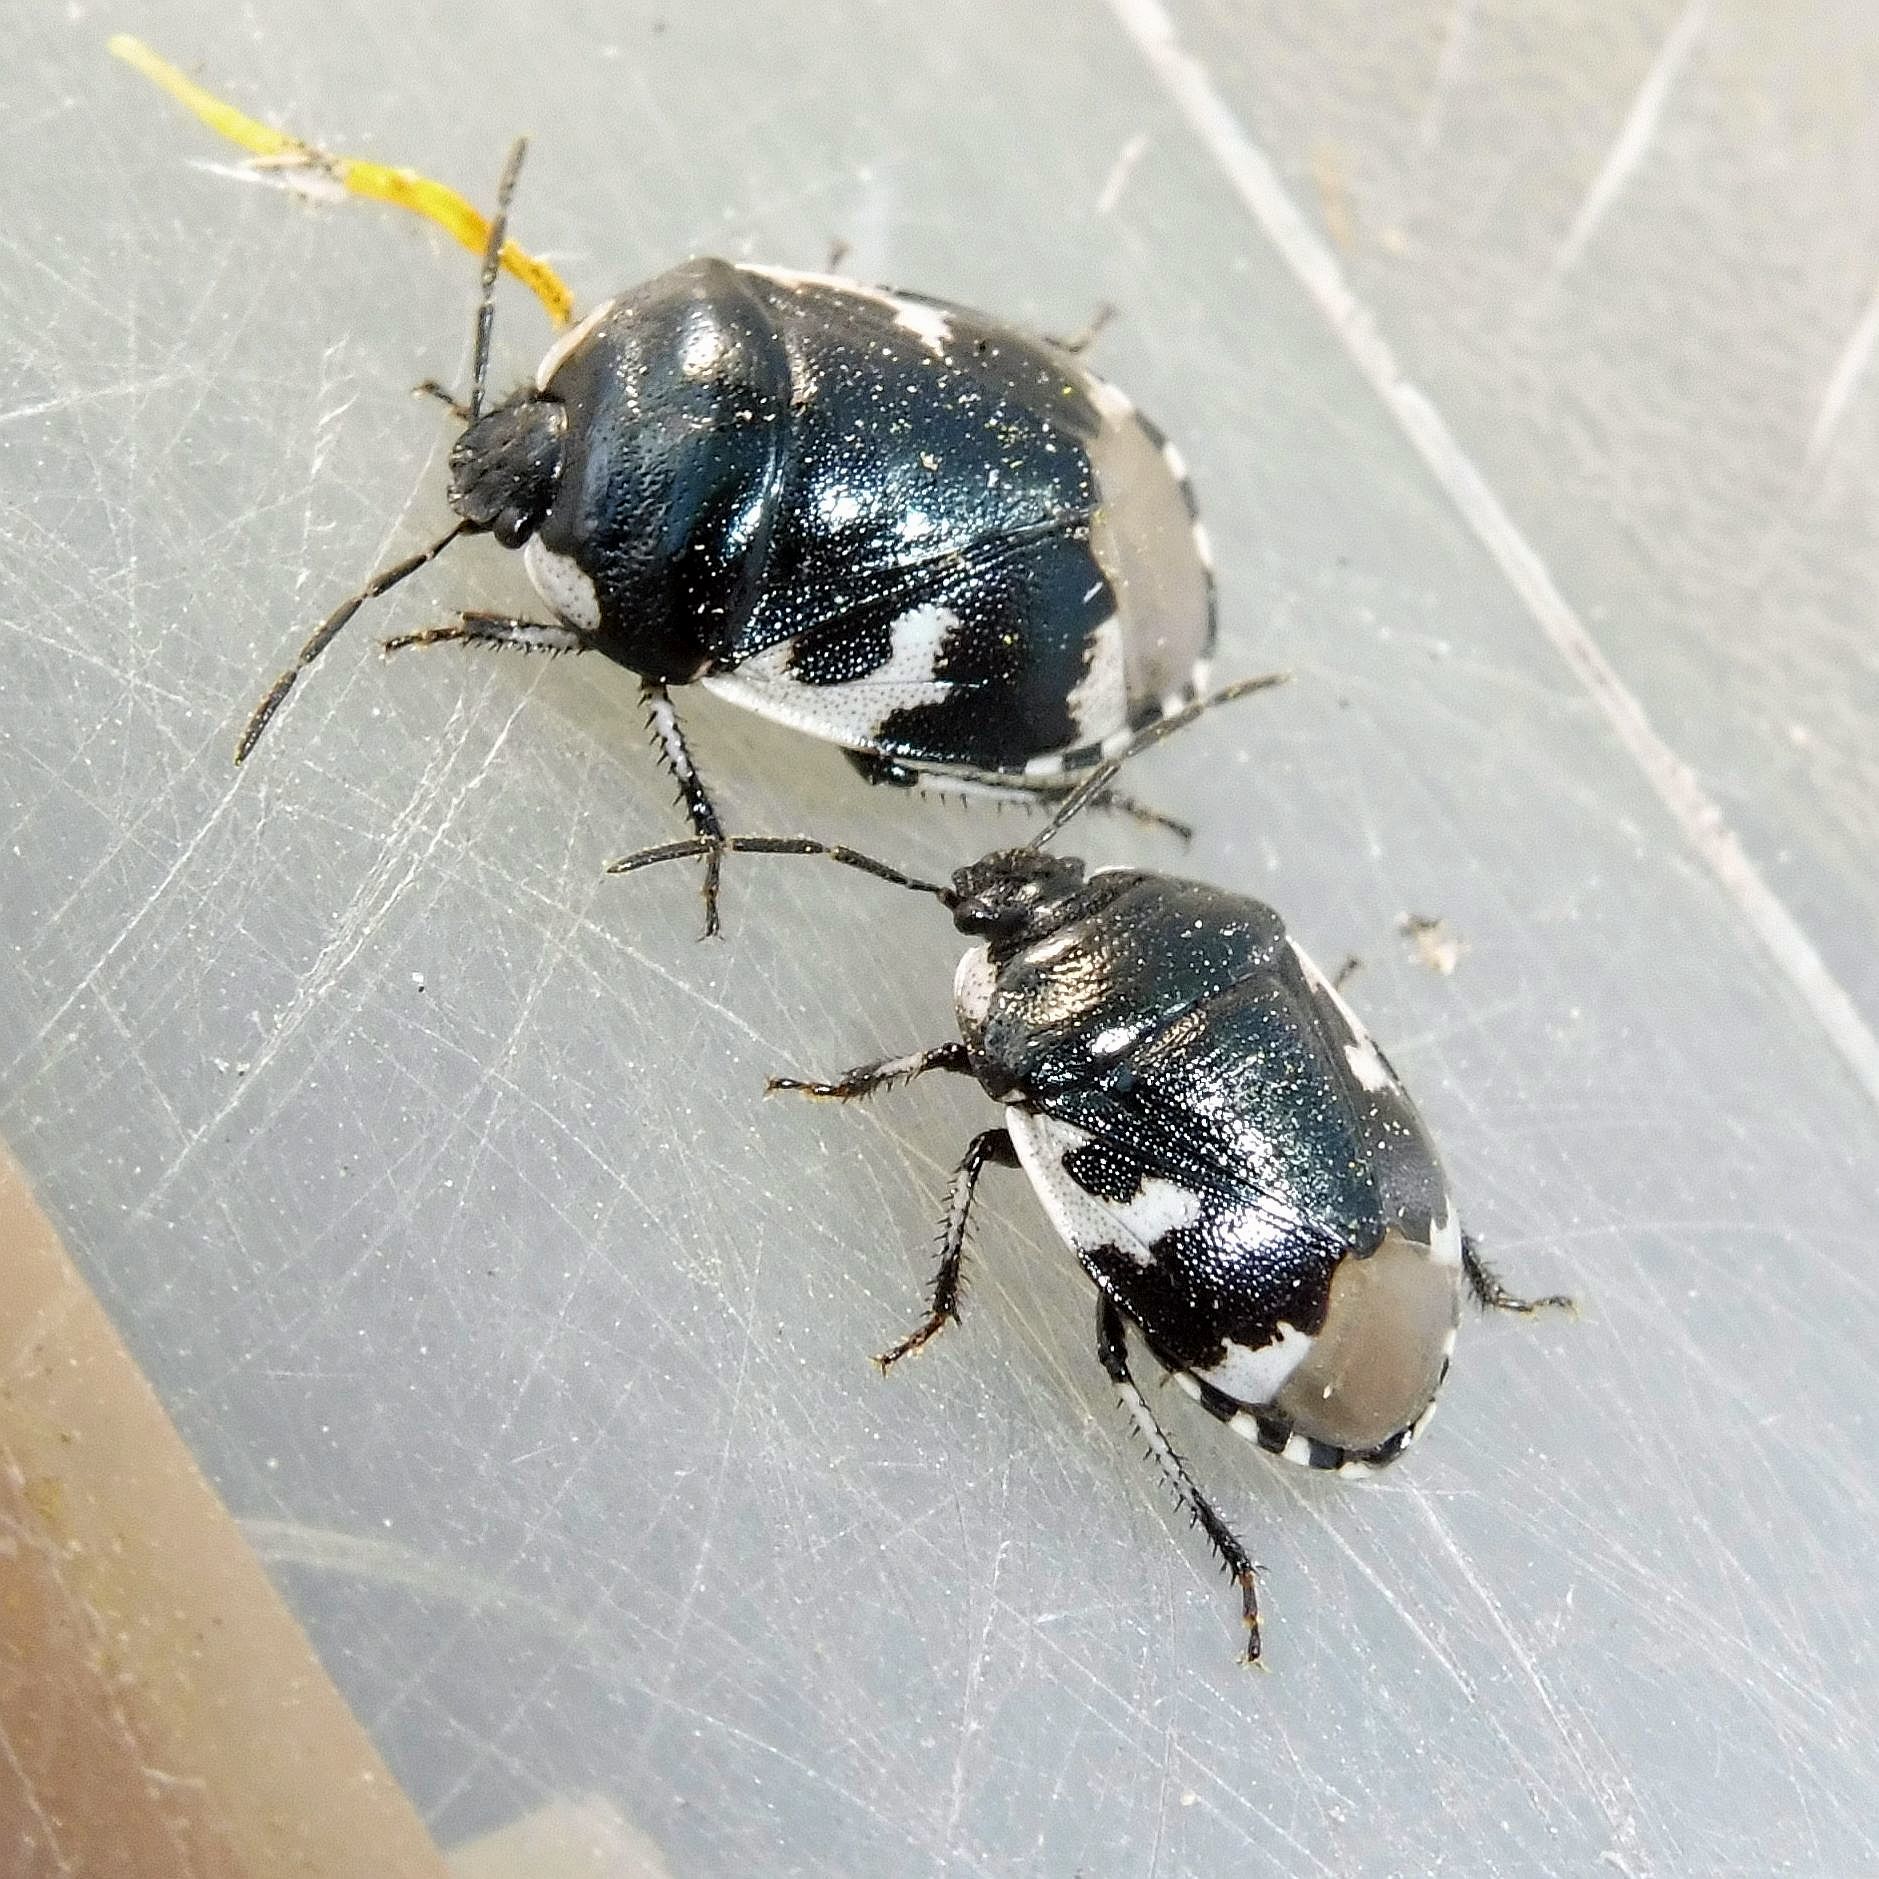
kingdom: Animalia
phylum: Arthropoda
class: Insecta
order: Hemiptera
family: Cydnidae
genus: Tritomegas
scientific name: Tritomegas bicolor
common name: Pied shieldbug
